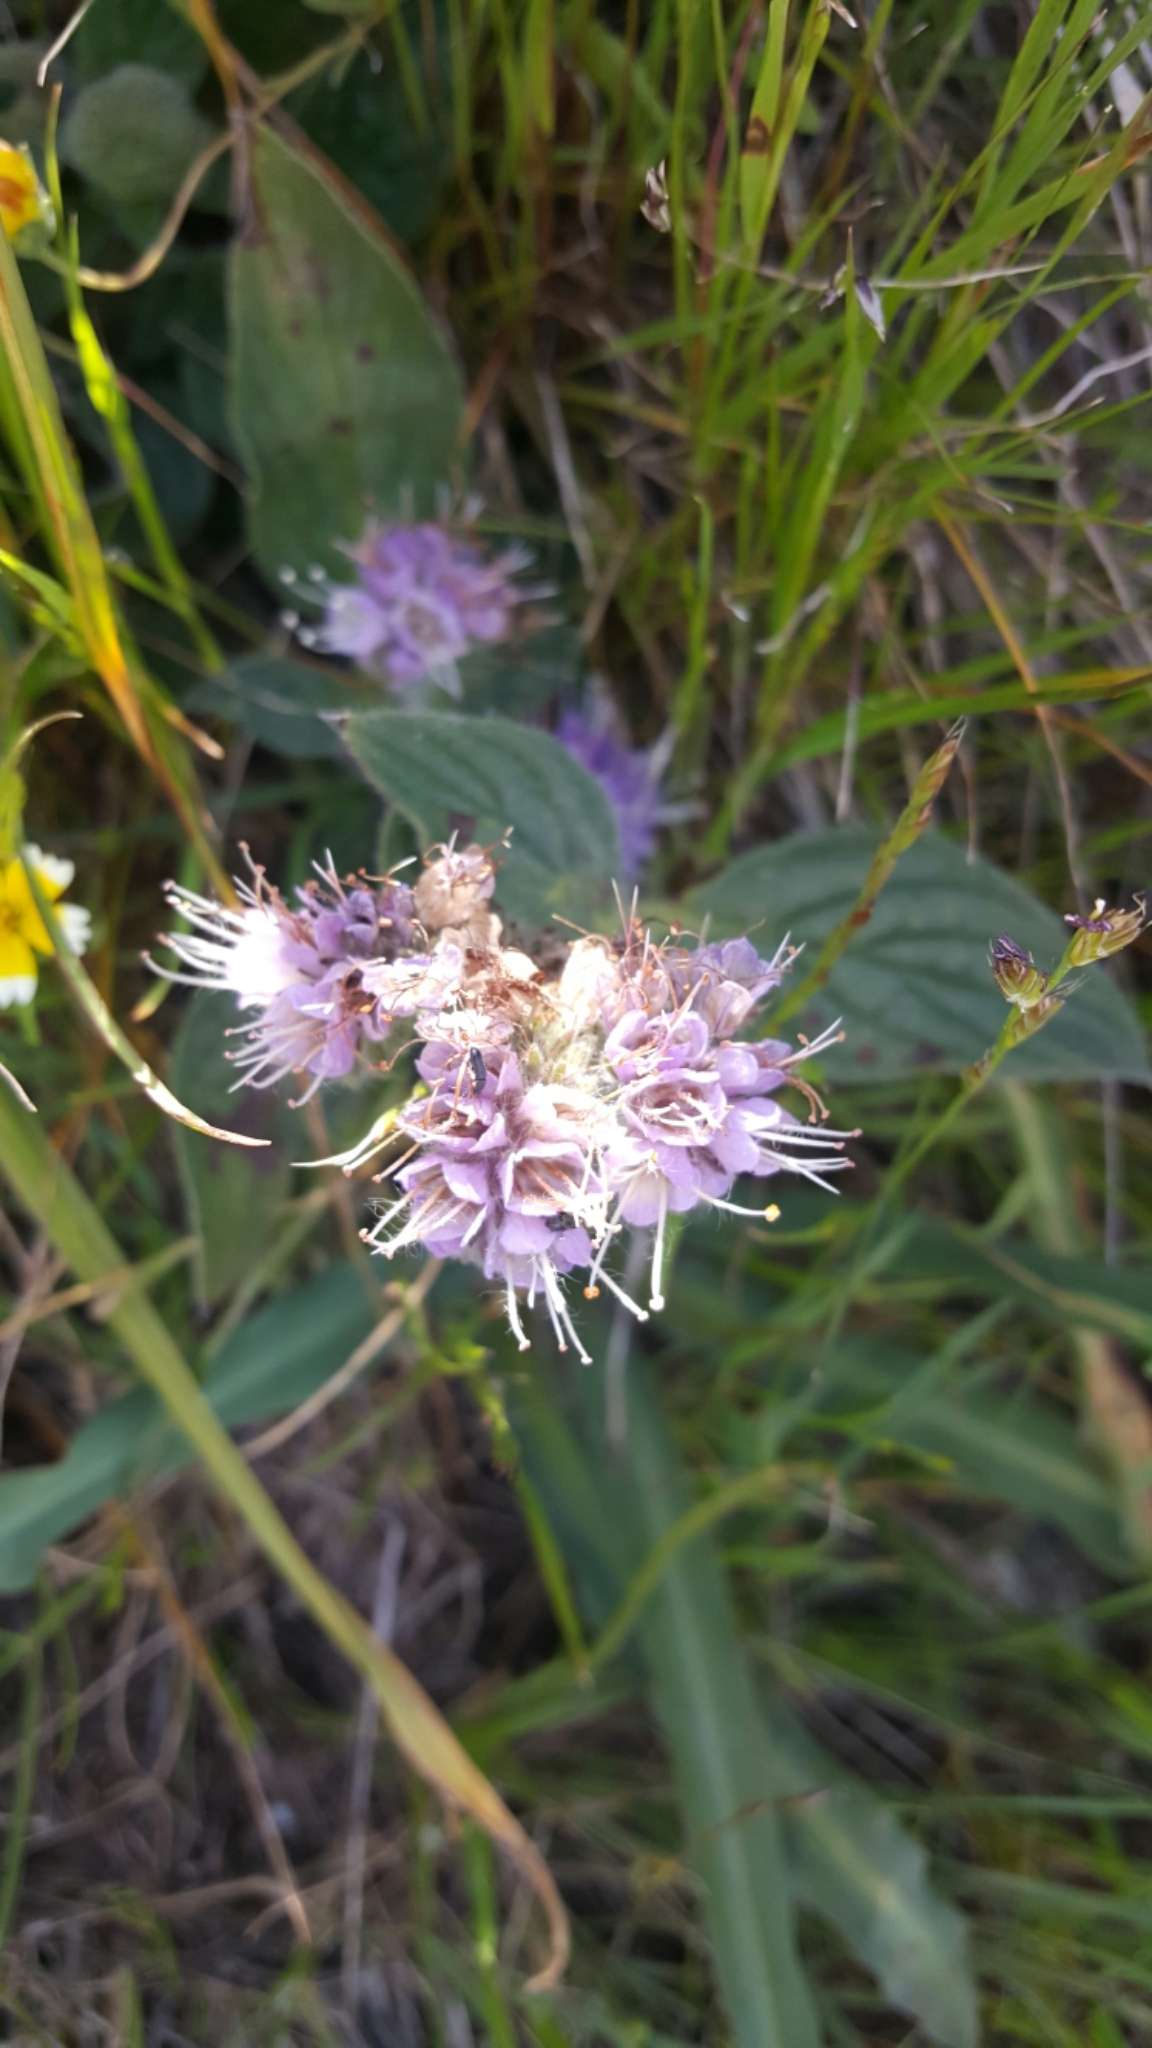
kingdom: Plantae
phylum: Tracheophyta
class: Magnoliopsida
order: Boraginales
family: Hydrophyllaceae
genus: Phacelia
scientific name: Phacelia californica
